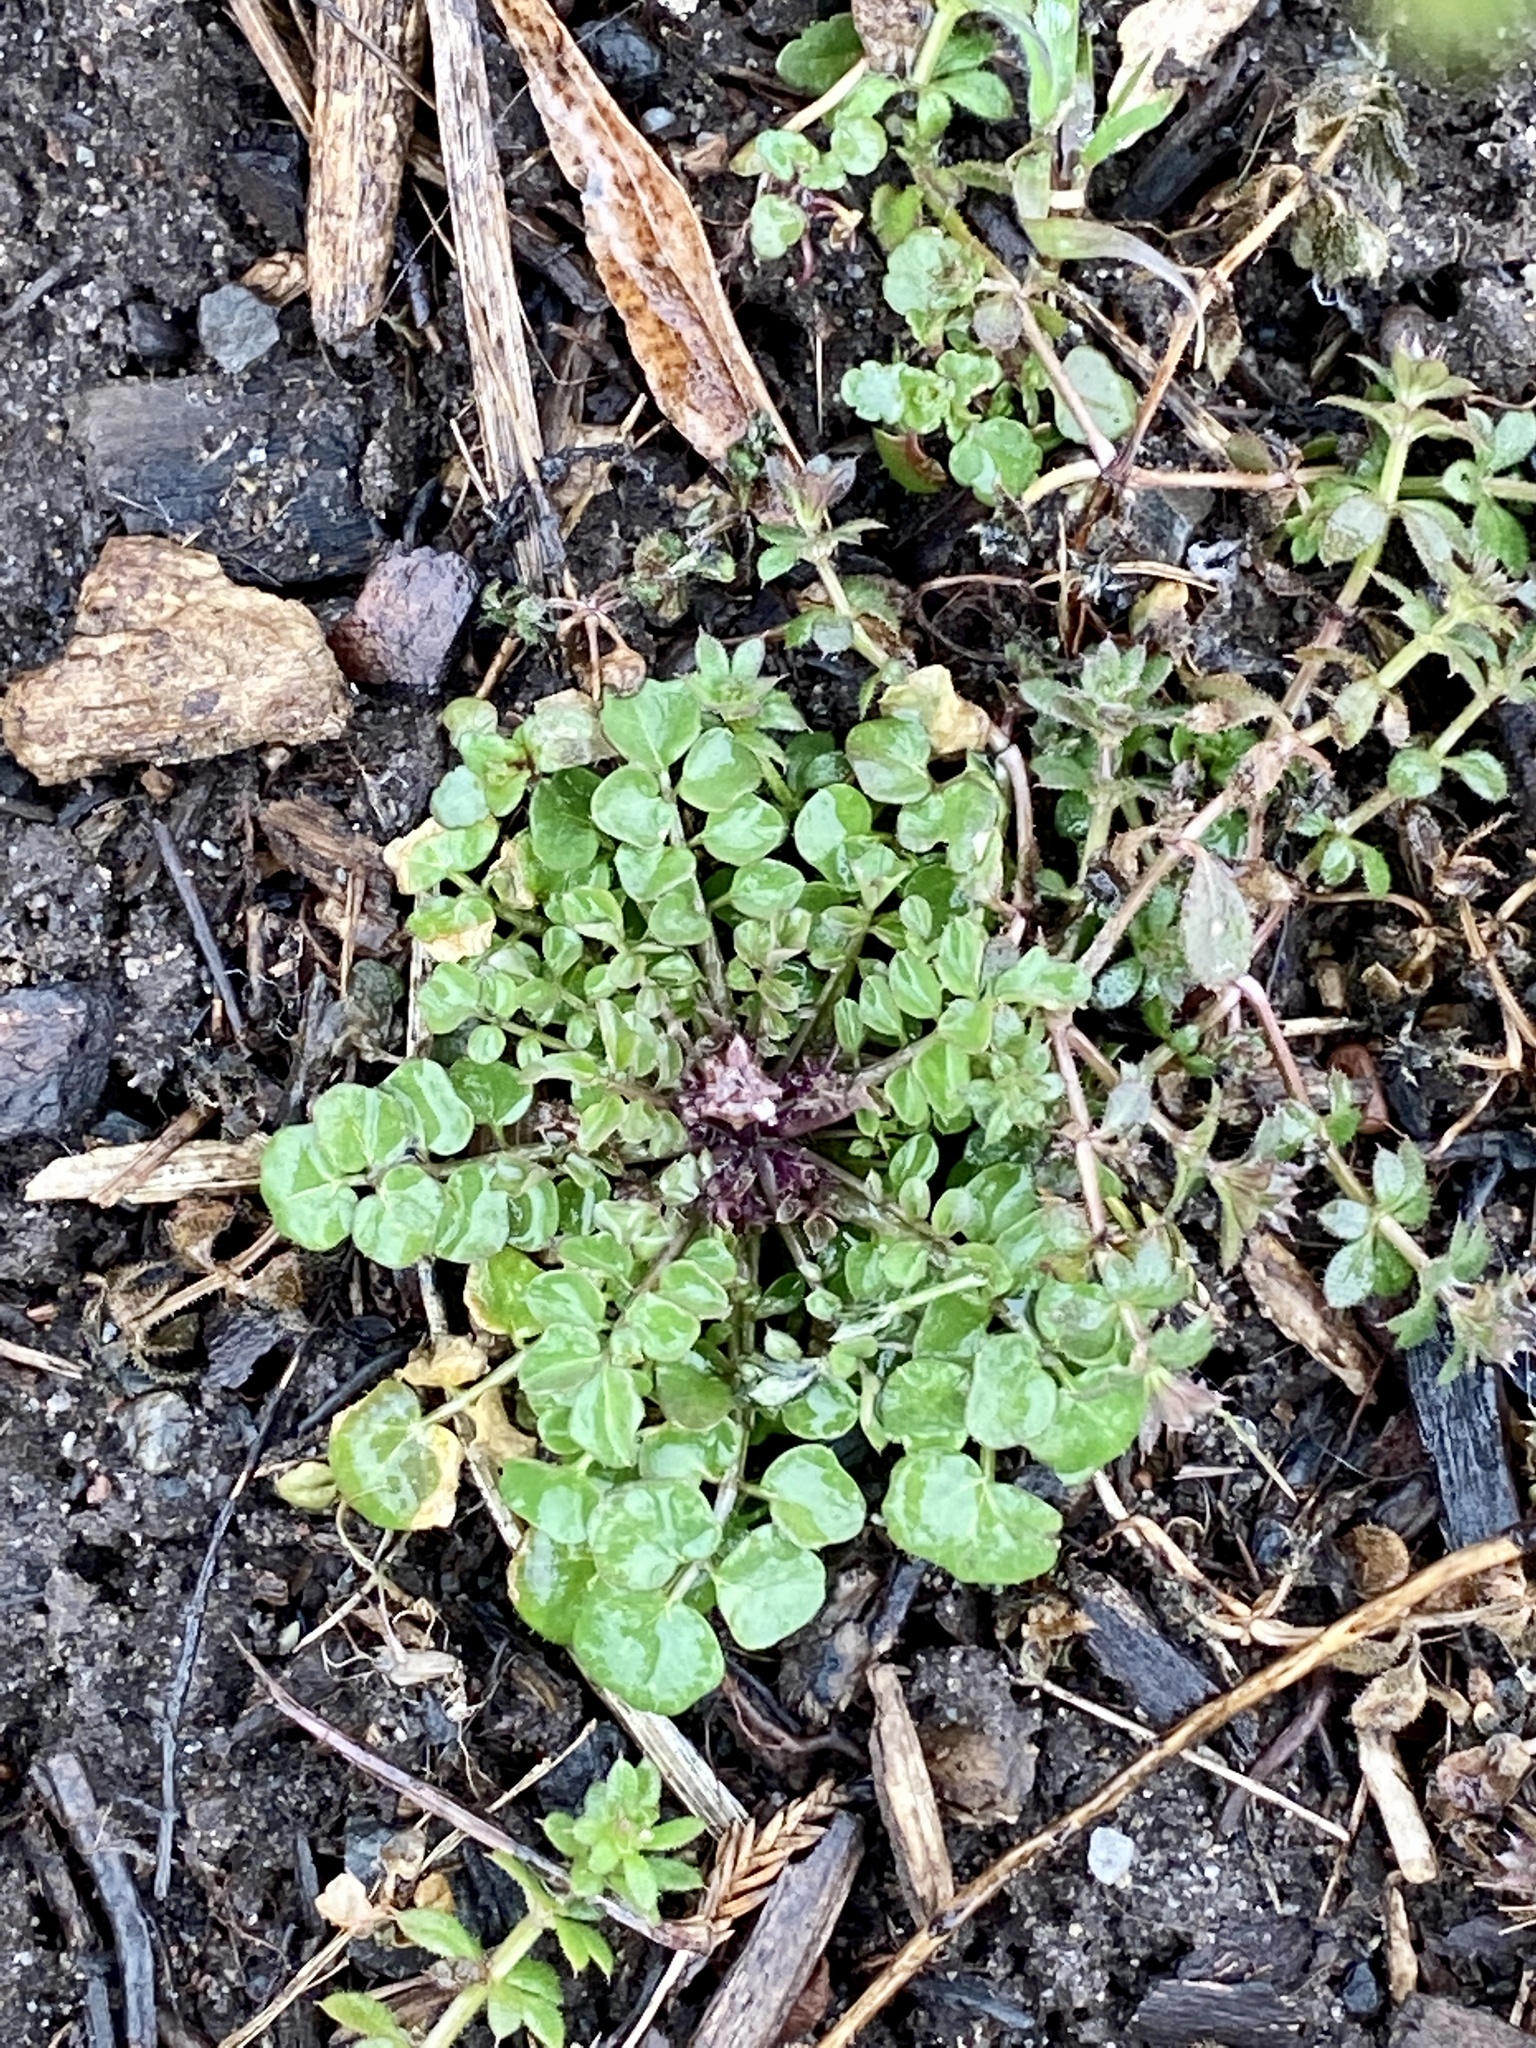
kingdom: Plantae
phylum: Tracheophyta
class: Magnoliopsida
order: Brassicales
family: Brassicaceae
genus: Cardamine
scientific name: Cardamine hirsuta
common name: Hairy bittercress
